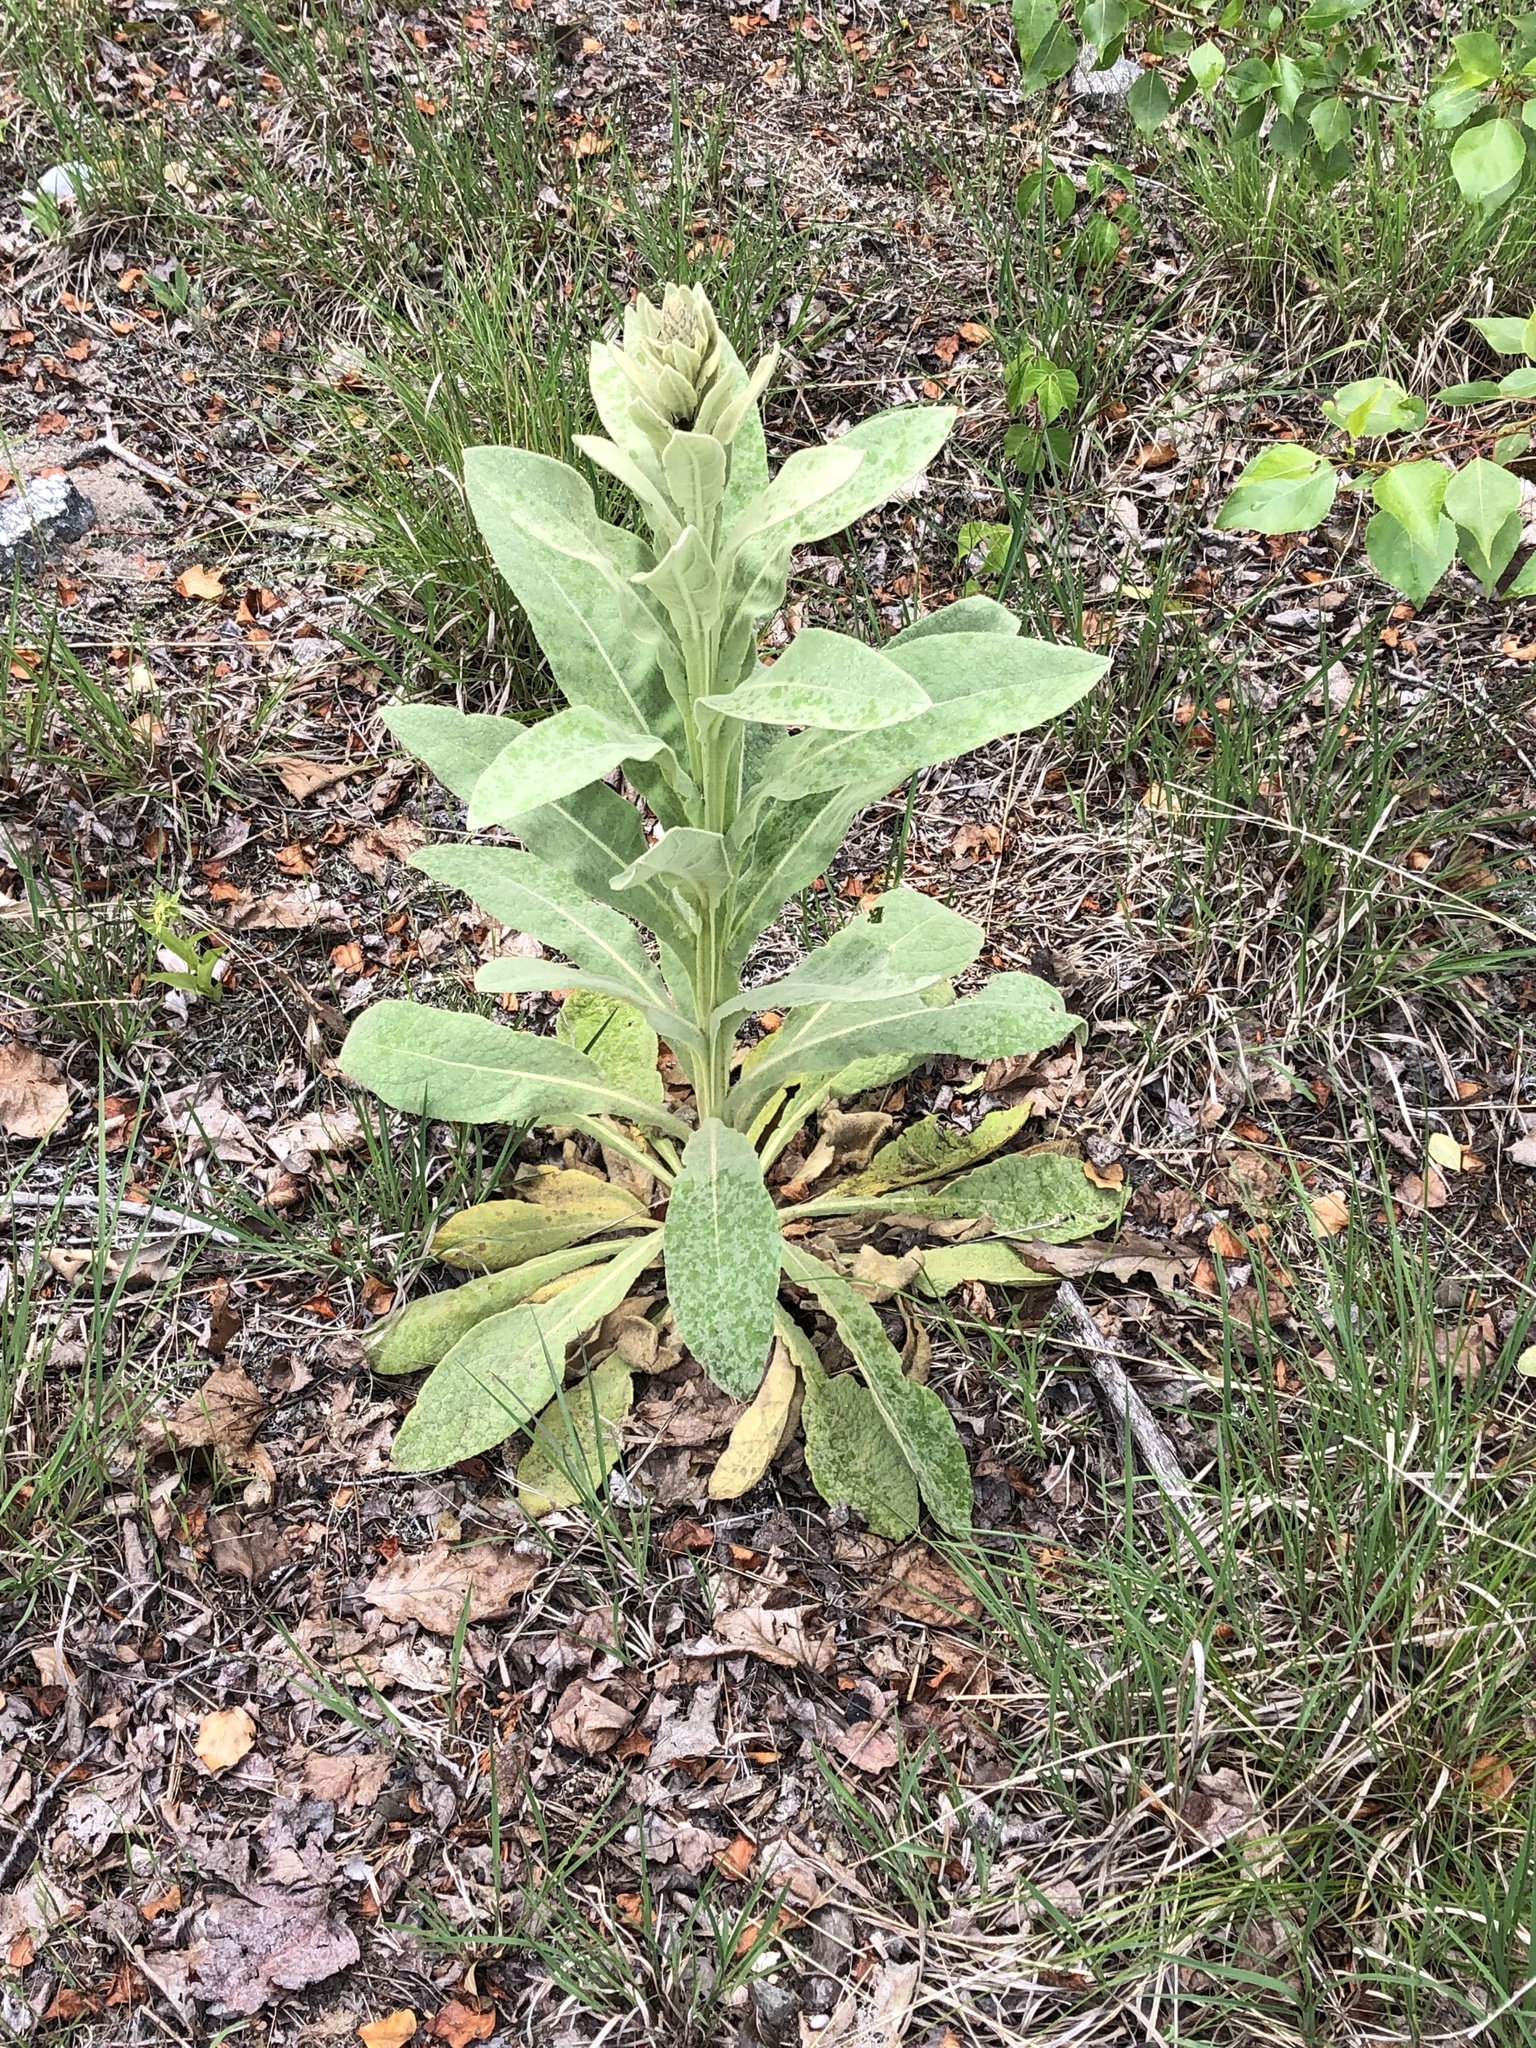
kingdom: Plantae
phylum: Tracheophyta
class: Magnoliopsida
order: Lamiales
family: Scrophulariaceae
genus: Verbascum
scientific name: Verbascum thapsus
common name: Common mullein
